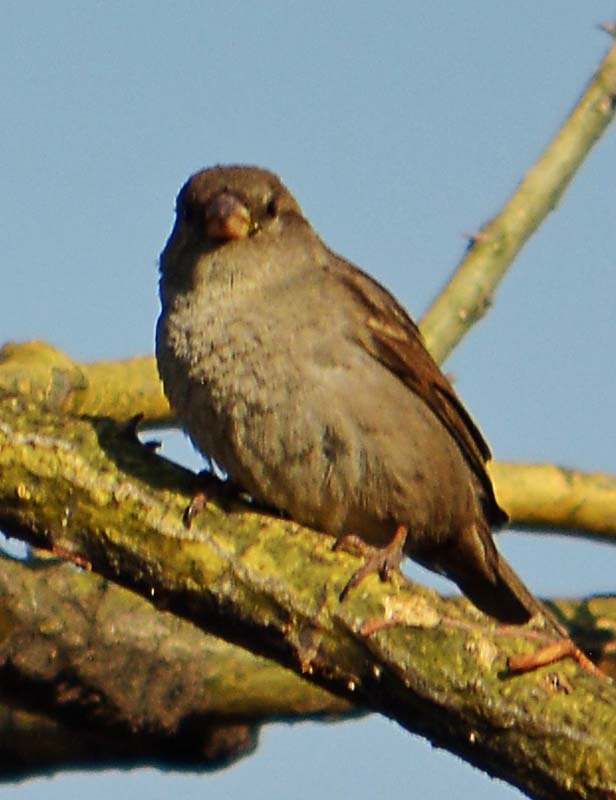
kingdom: Animalia
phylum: Chordata
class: Aves
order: Passeriformes
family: Passeridae
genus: Passer
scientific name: Passer domesticus
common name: House sparrow
